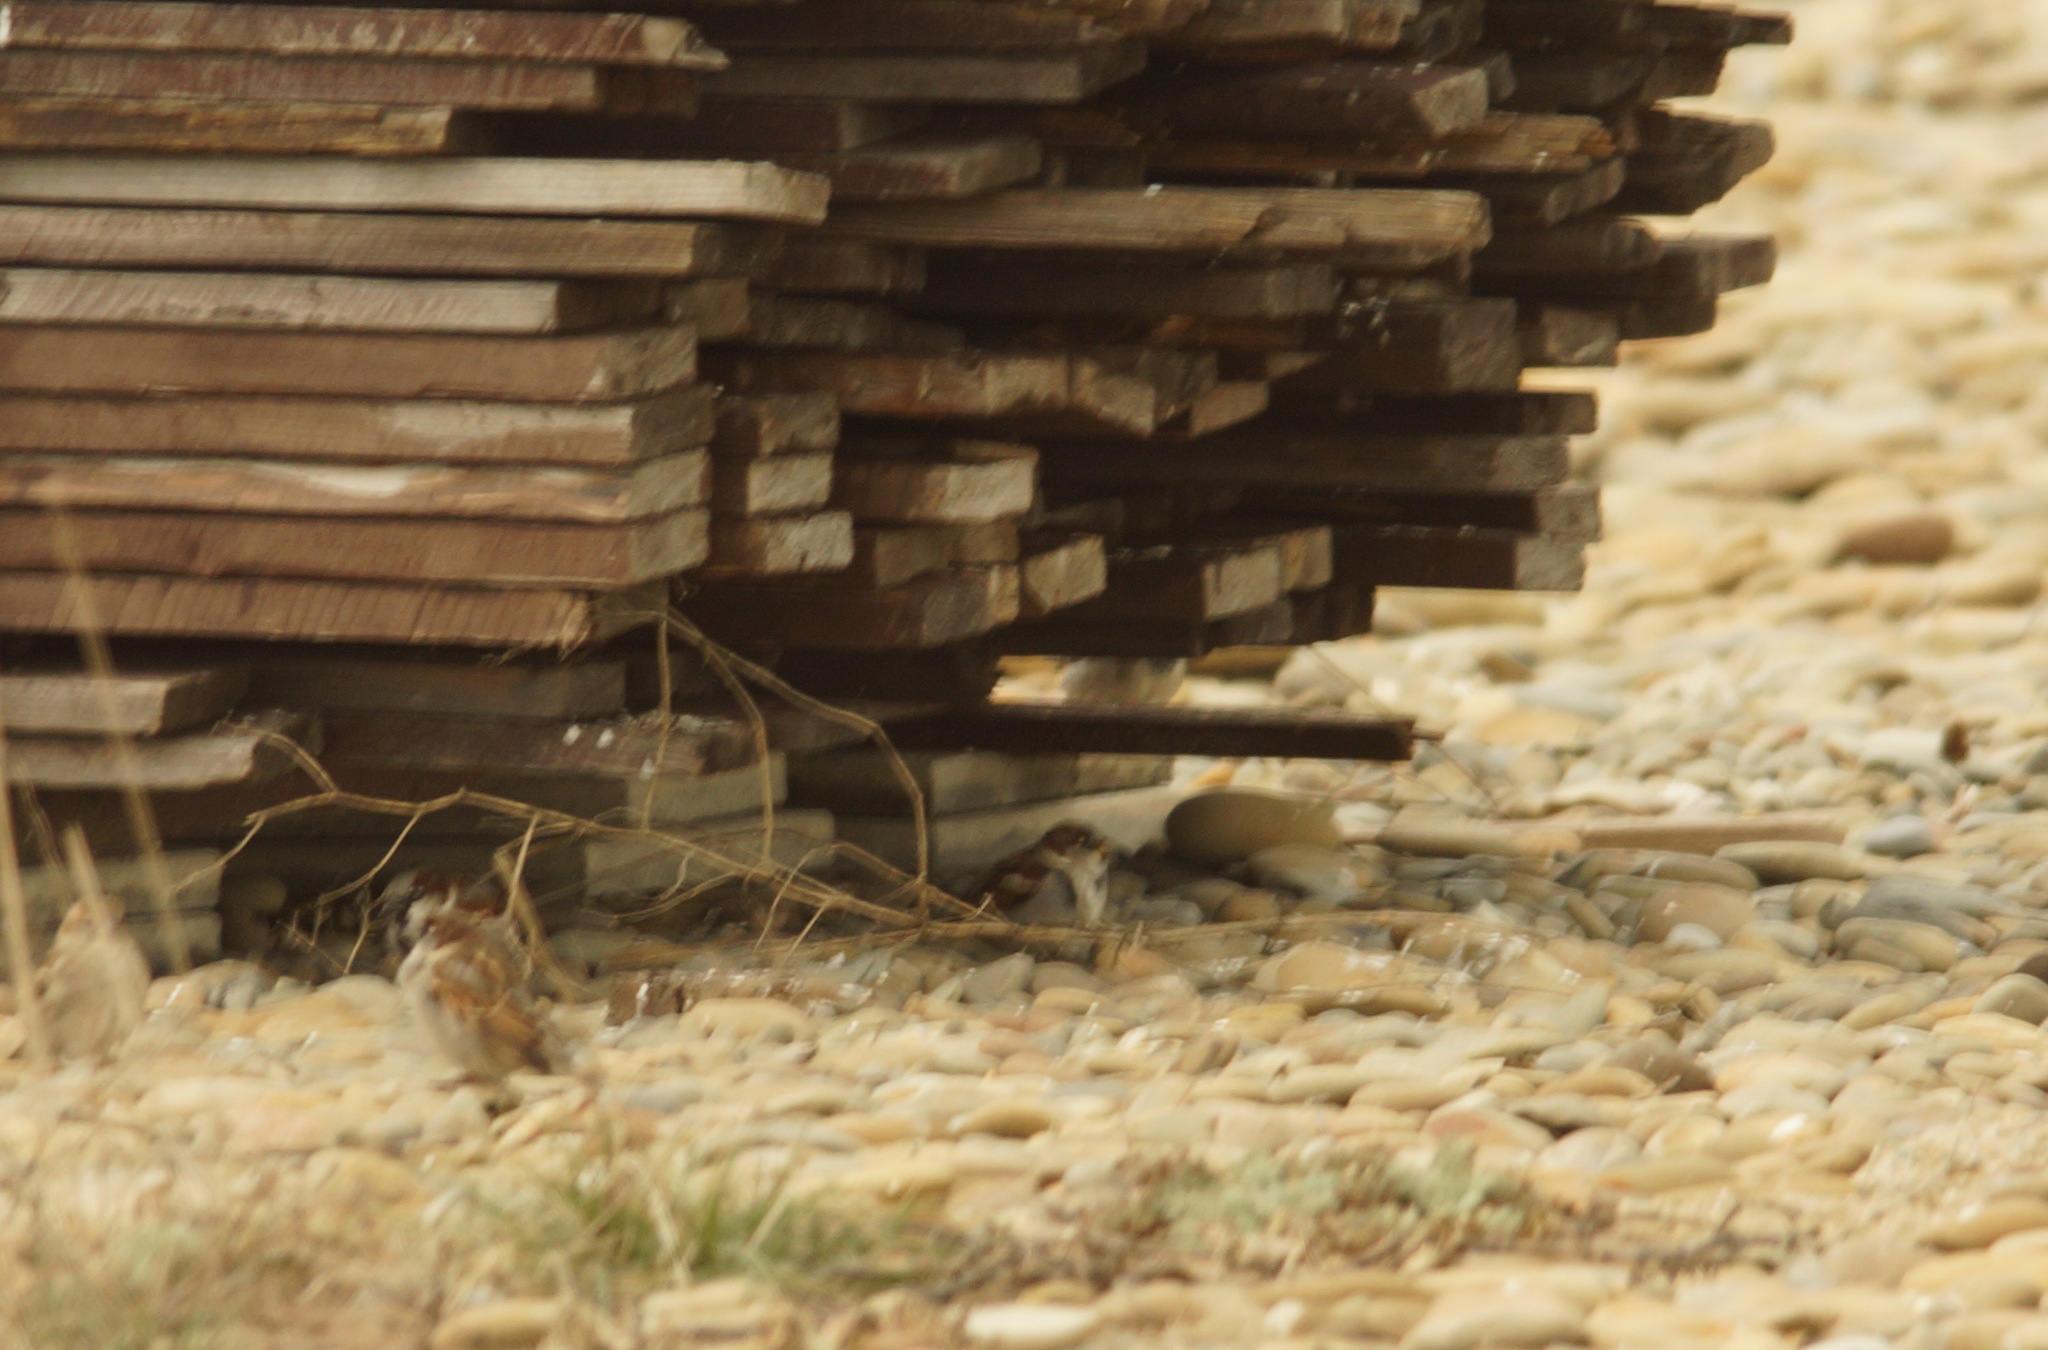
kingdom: Animalia
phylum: Chordata
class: Aves
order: Passeriformes
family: Passeridae
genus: Passer
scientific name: Passer domesticus
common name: House sparrow
